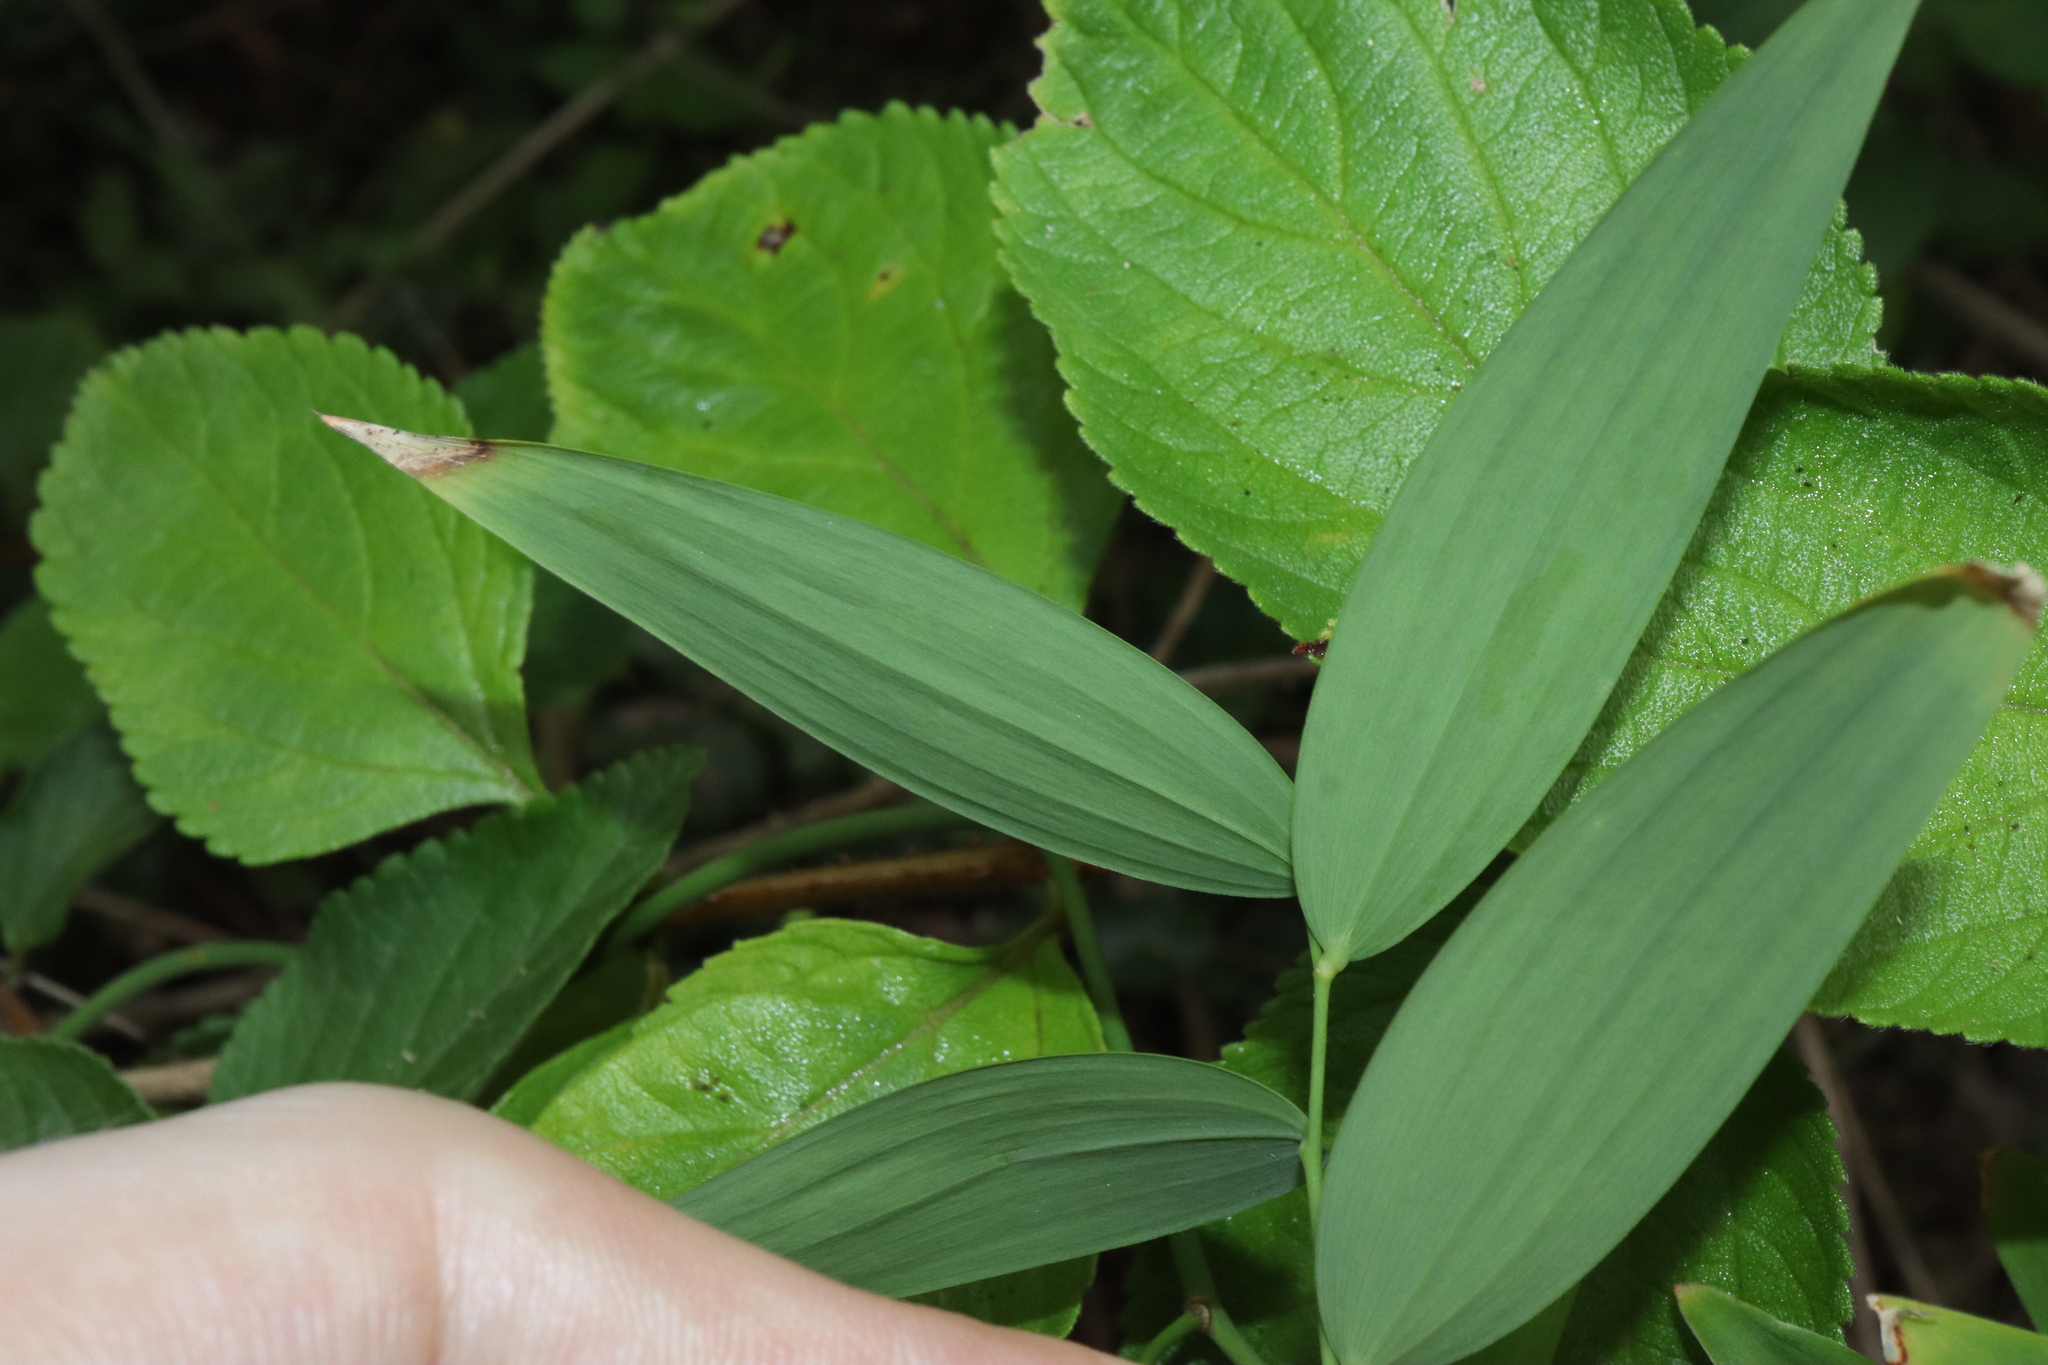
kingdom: Plantae
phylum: Tracheophyta
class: Liliopsida
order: Asparagales
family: Asparagaceae
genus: Eustrephus
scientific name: Eustrephus latifolius
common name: Orangevine
